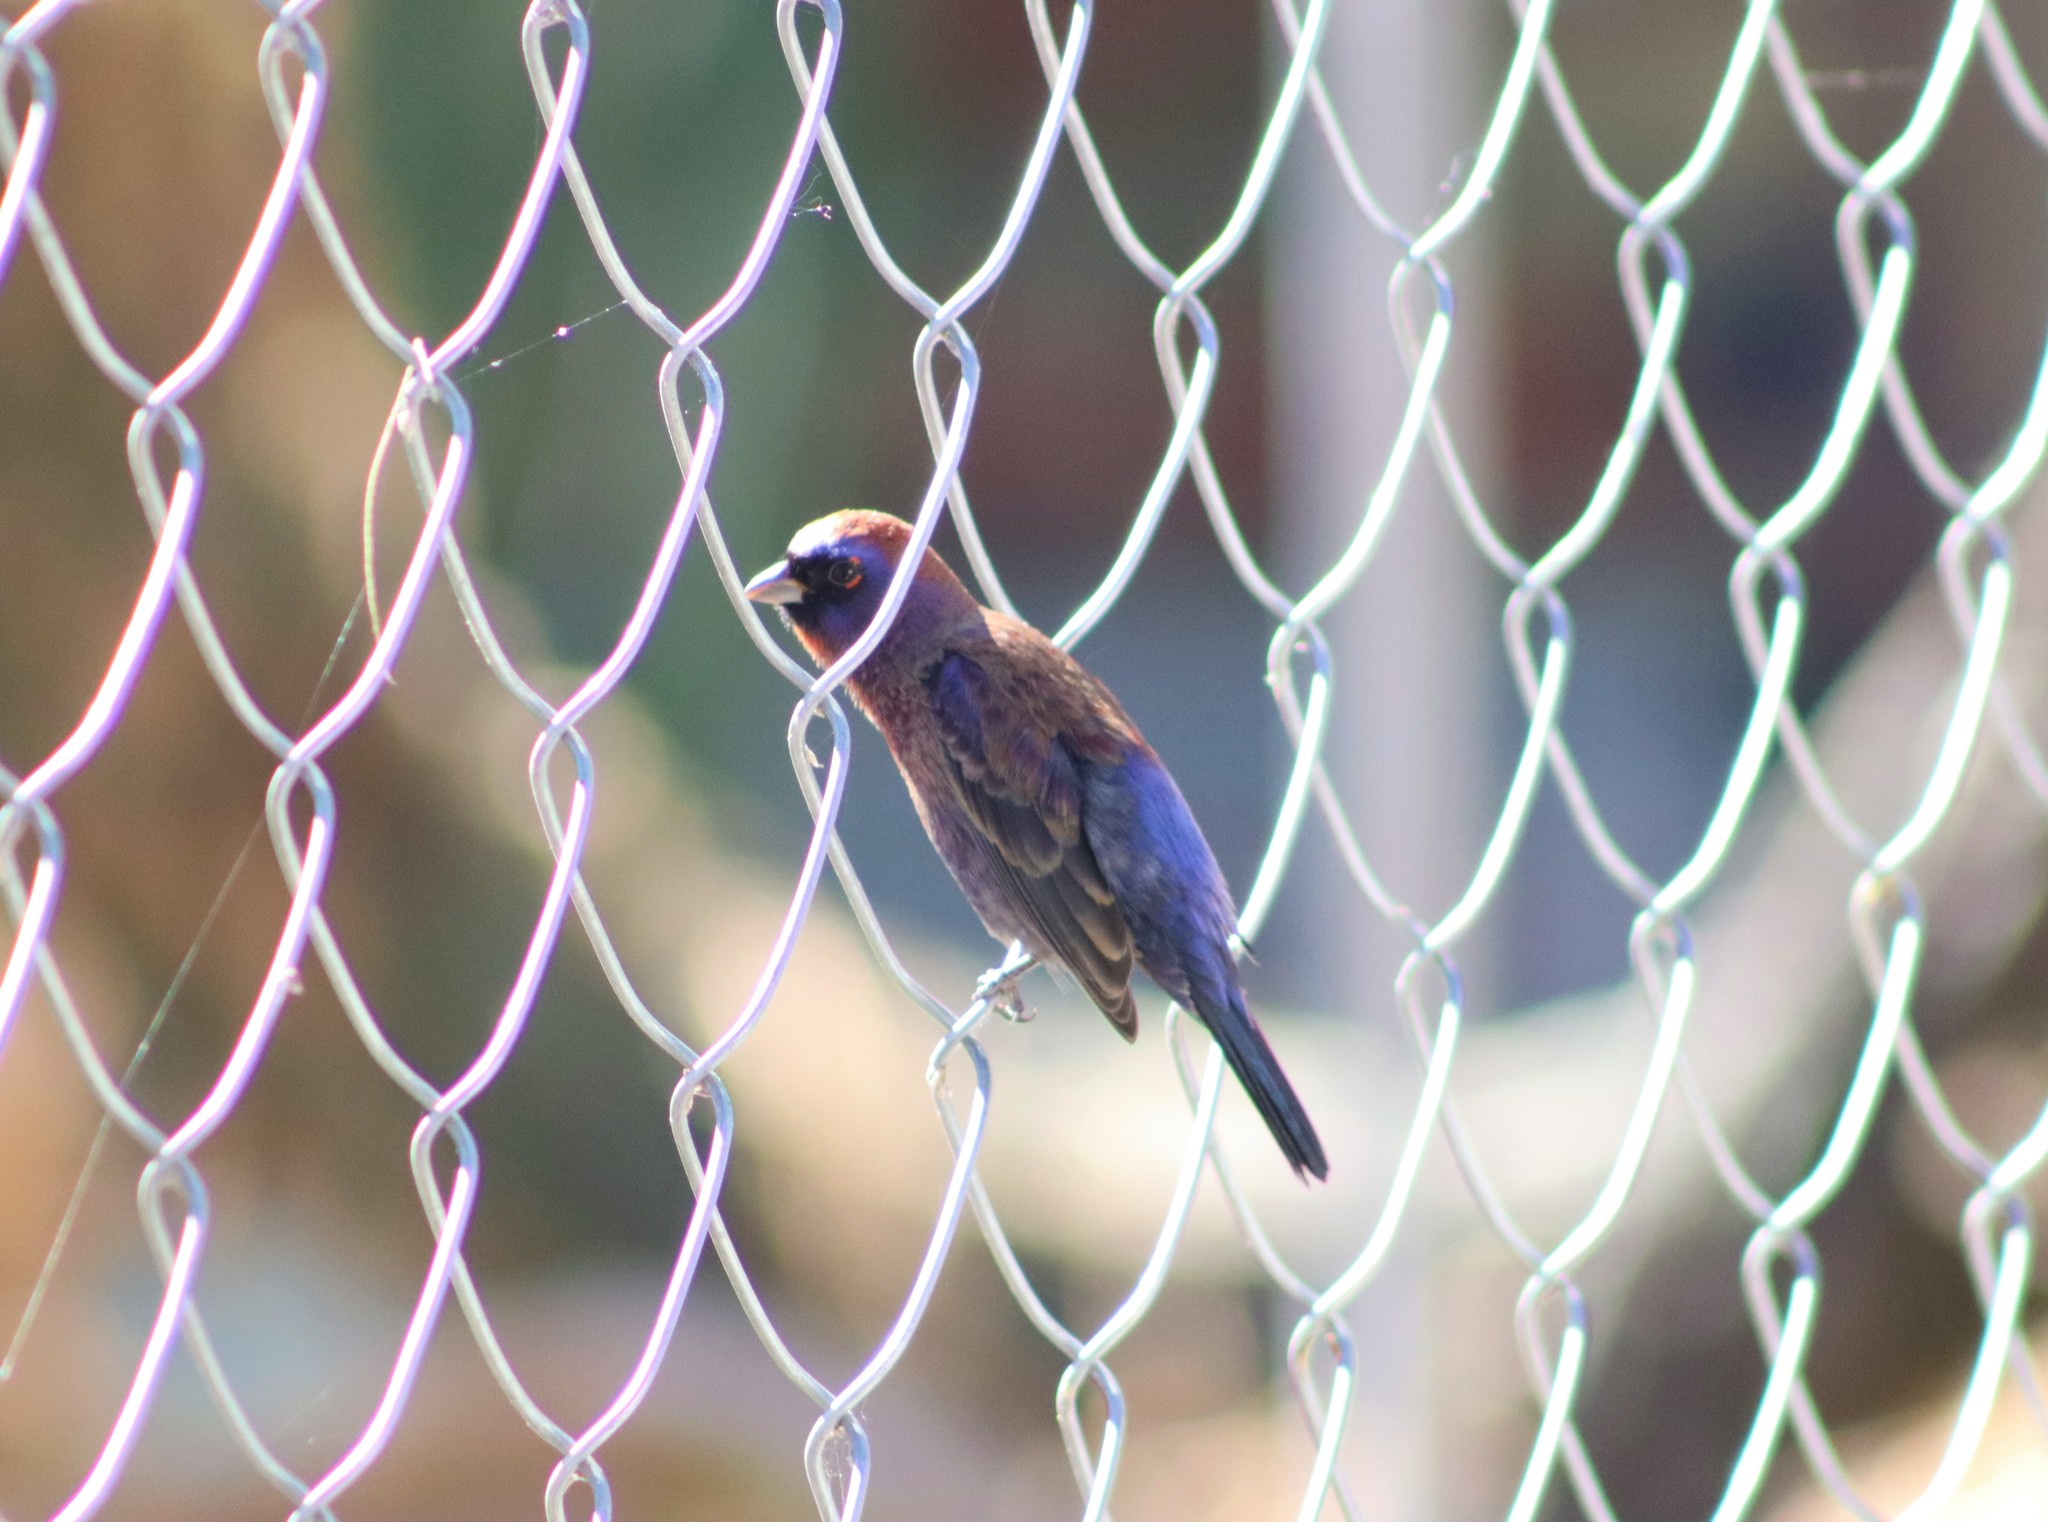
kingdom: Animalia
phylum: Chordata
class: Aves
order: Passeriformes
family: Cardinalidae
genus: Passerina
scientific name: Passerina versicolor
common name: Varied bunting
